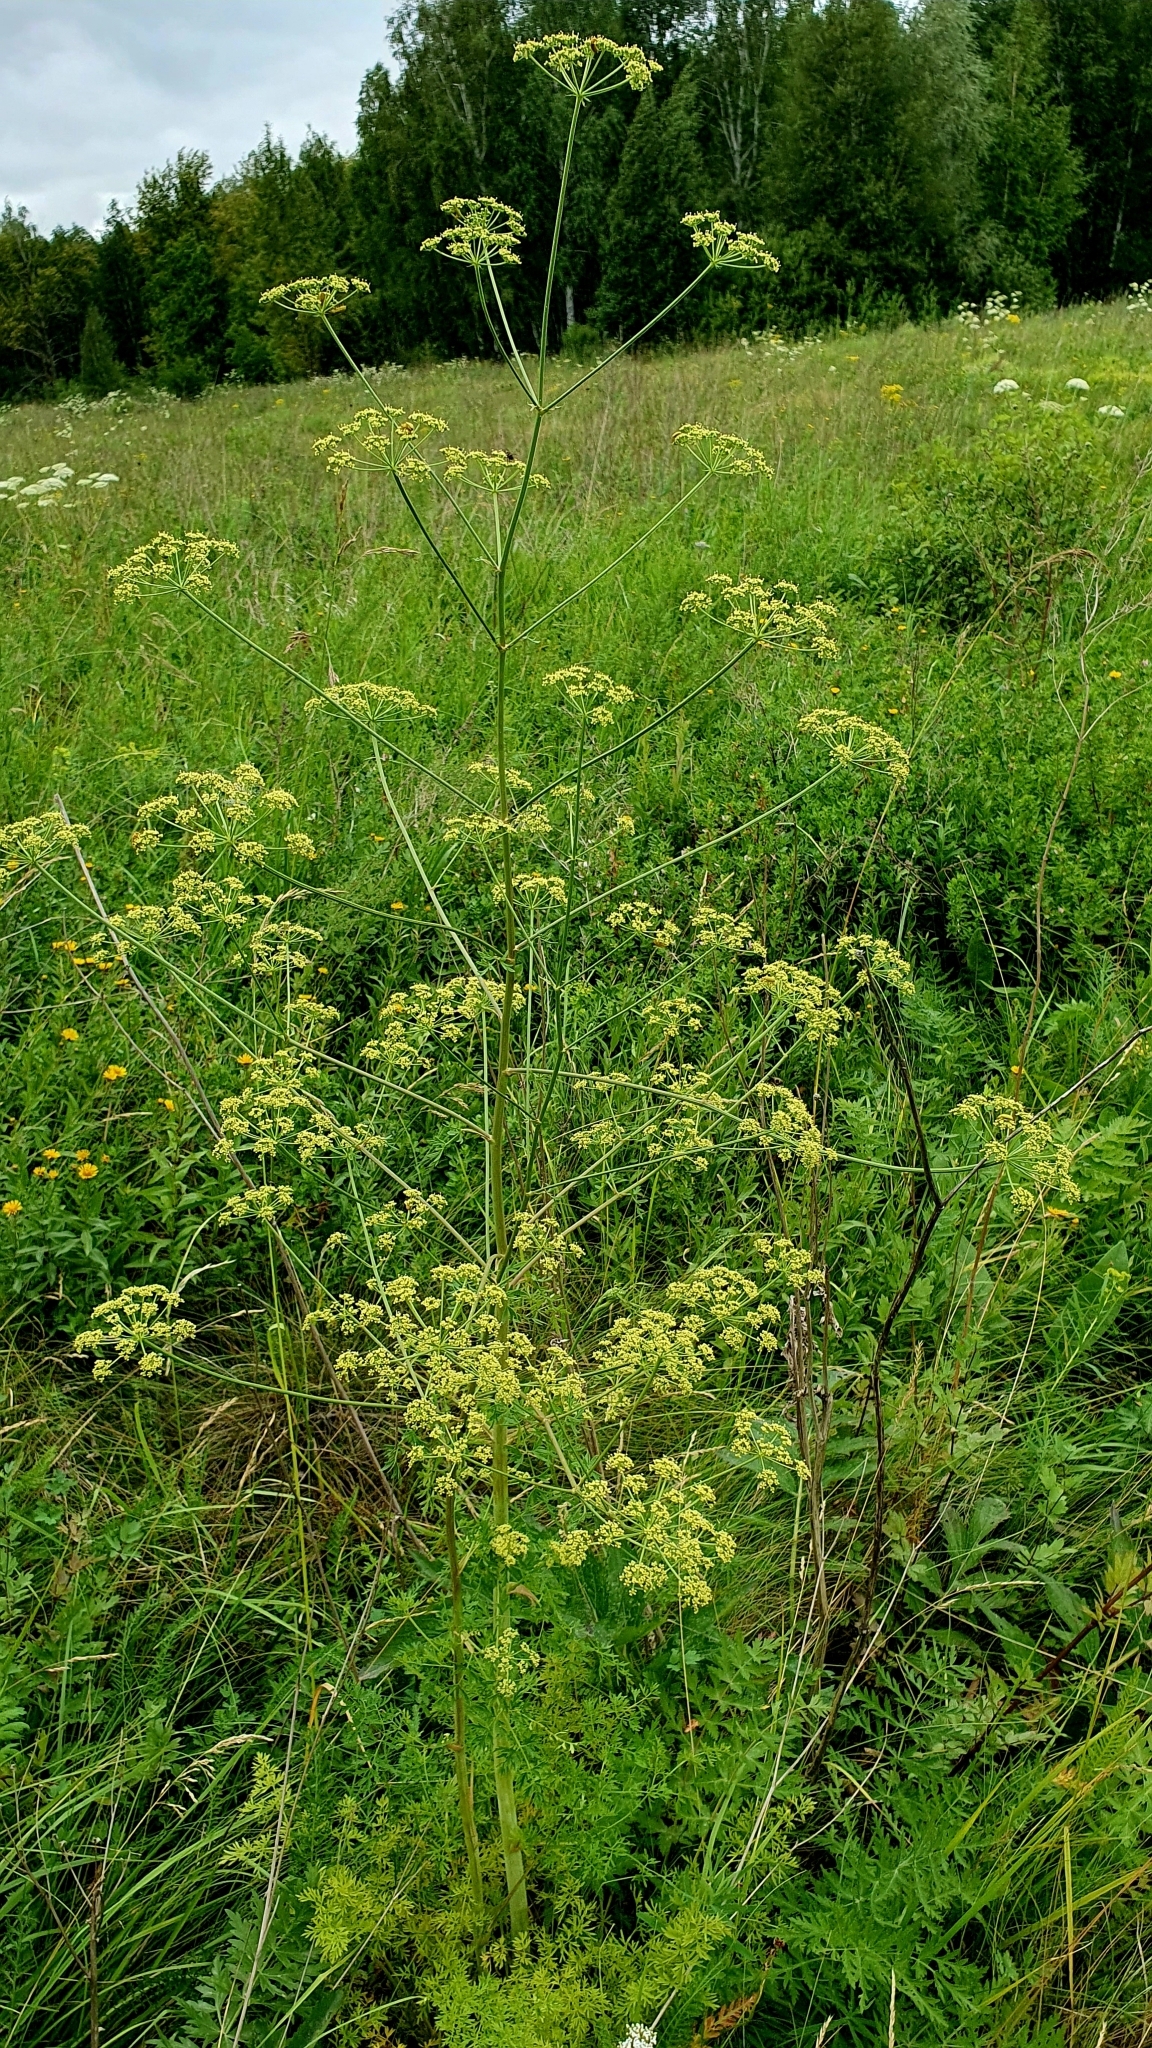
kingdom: Plantae
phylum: Tracheophyta
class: Magnoliopsida
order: Apiales
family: Apiaceae
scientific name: Apiaceae
